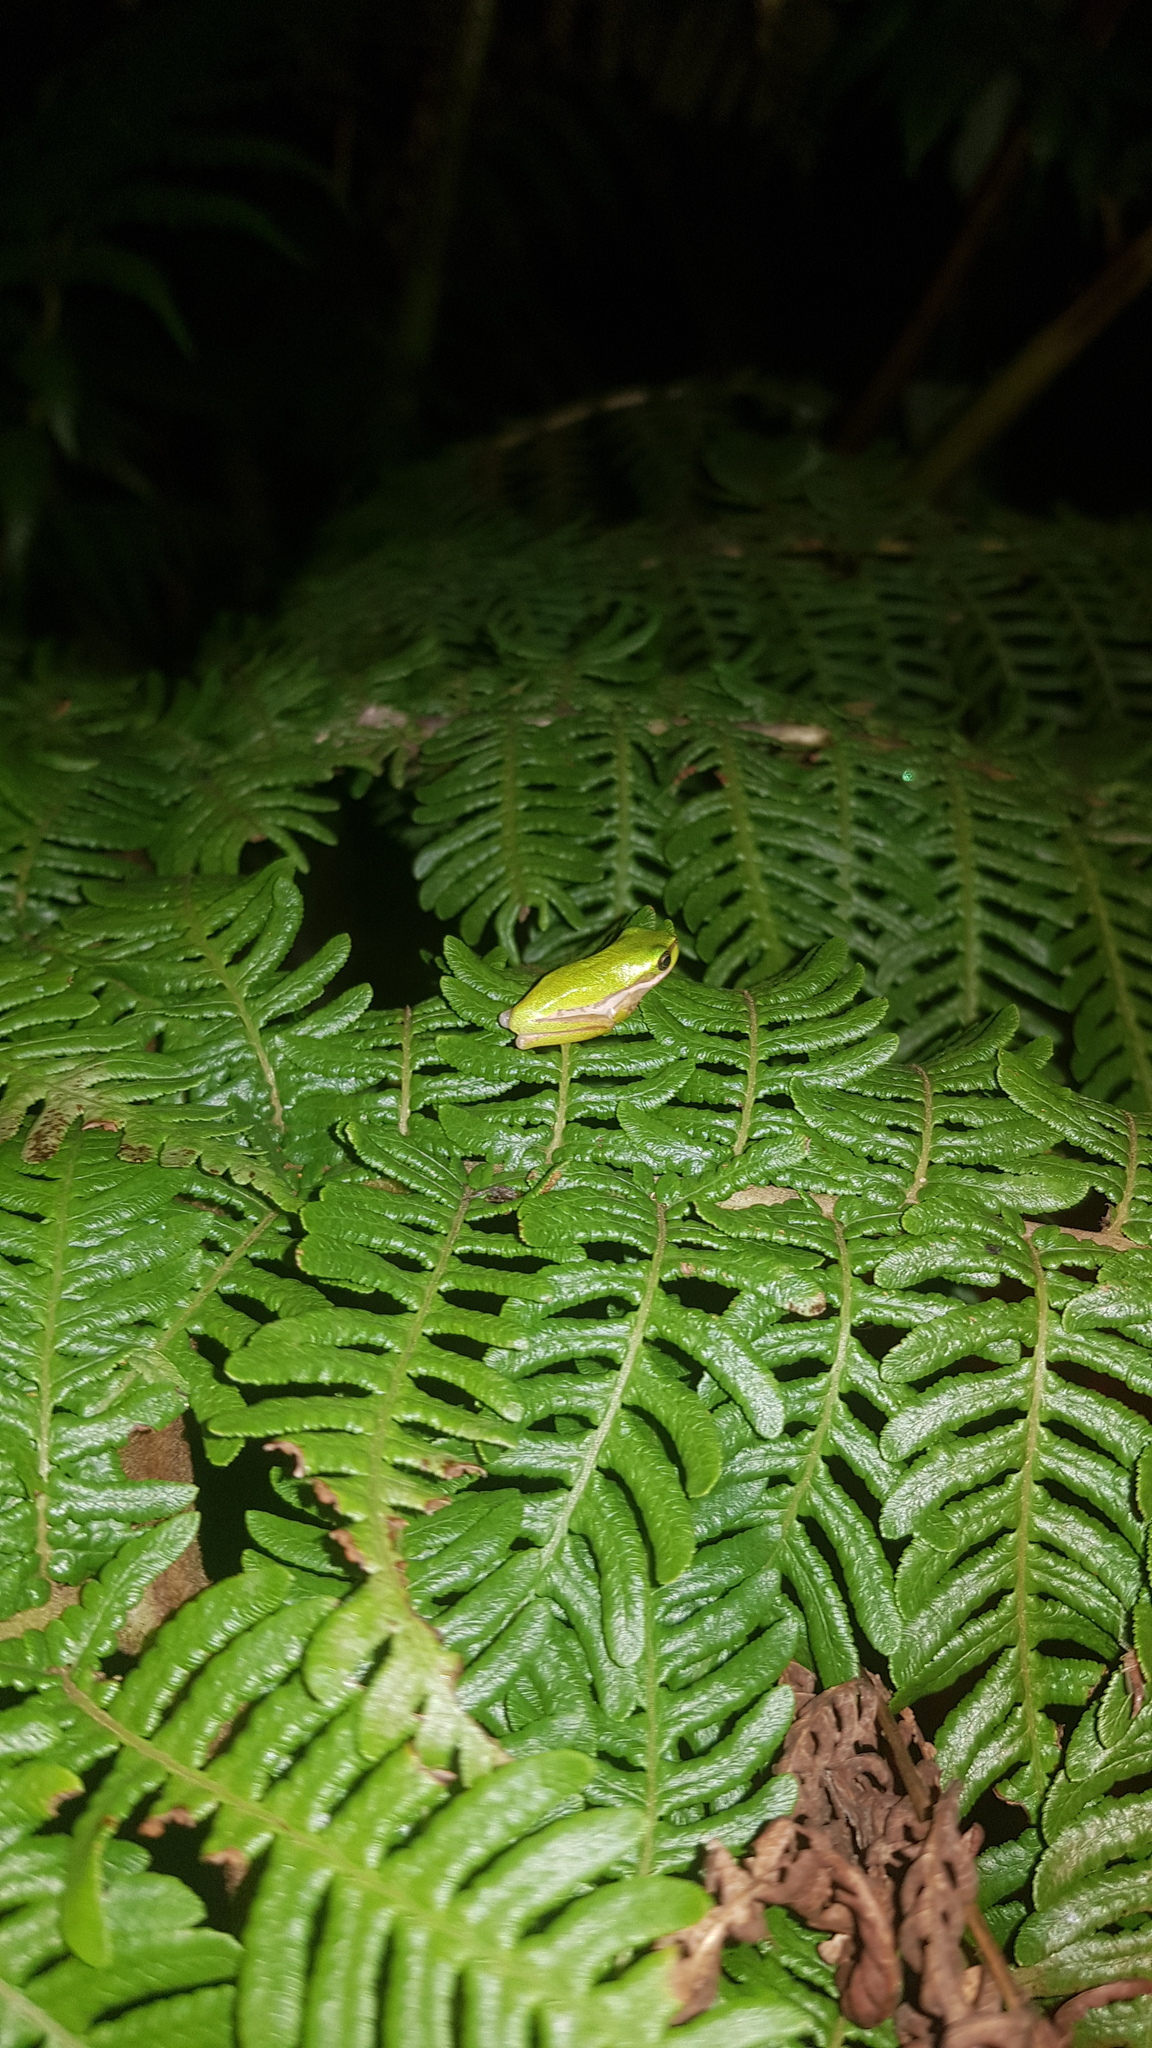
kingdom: Animalia
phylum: Chordata
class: Amphibia
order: Anura
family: Pelodryadidae
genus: Litoria
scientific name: Litoria fallax
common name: Eastern dwarf treefrog
